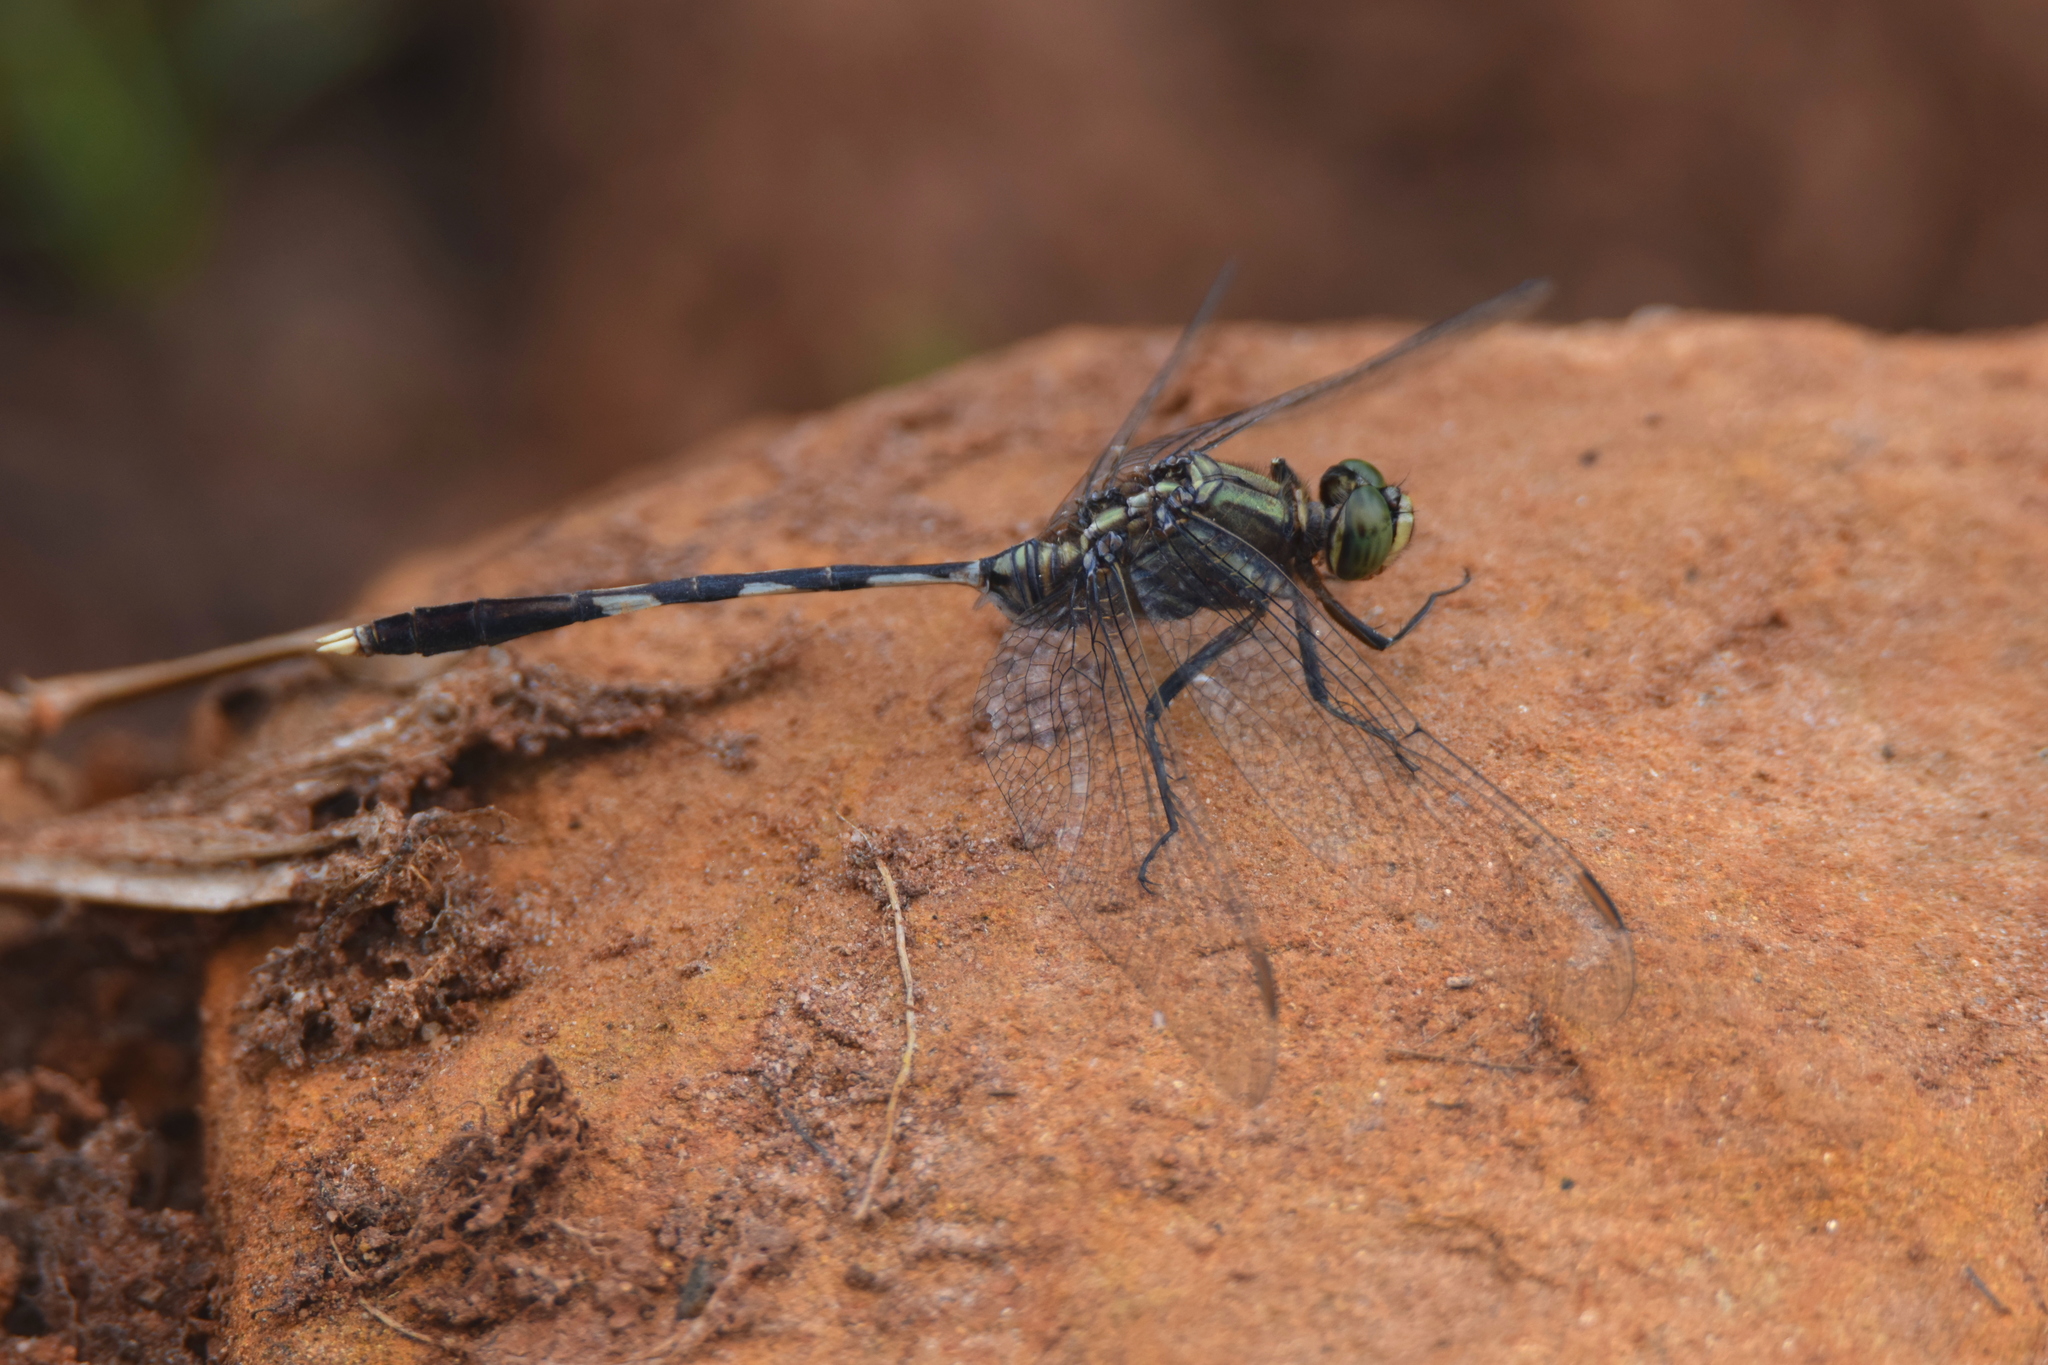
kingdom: Animalia
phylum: Arthropoda
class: Insecta
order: Odonata
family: Libellulidae
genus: Orthetrum
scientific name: Orthetrum sabina
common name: Slender skimmer
